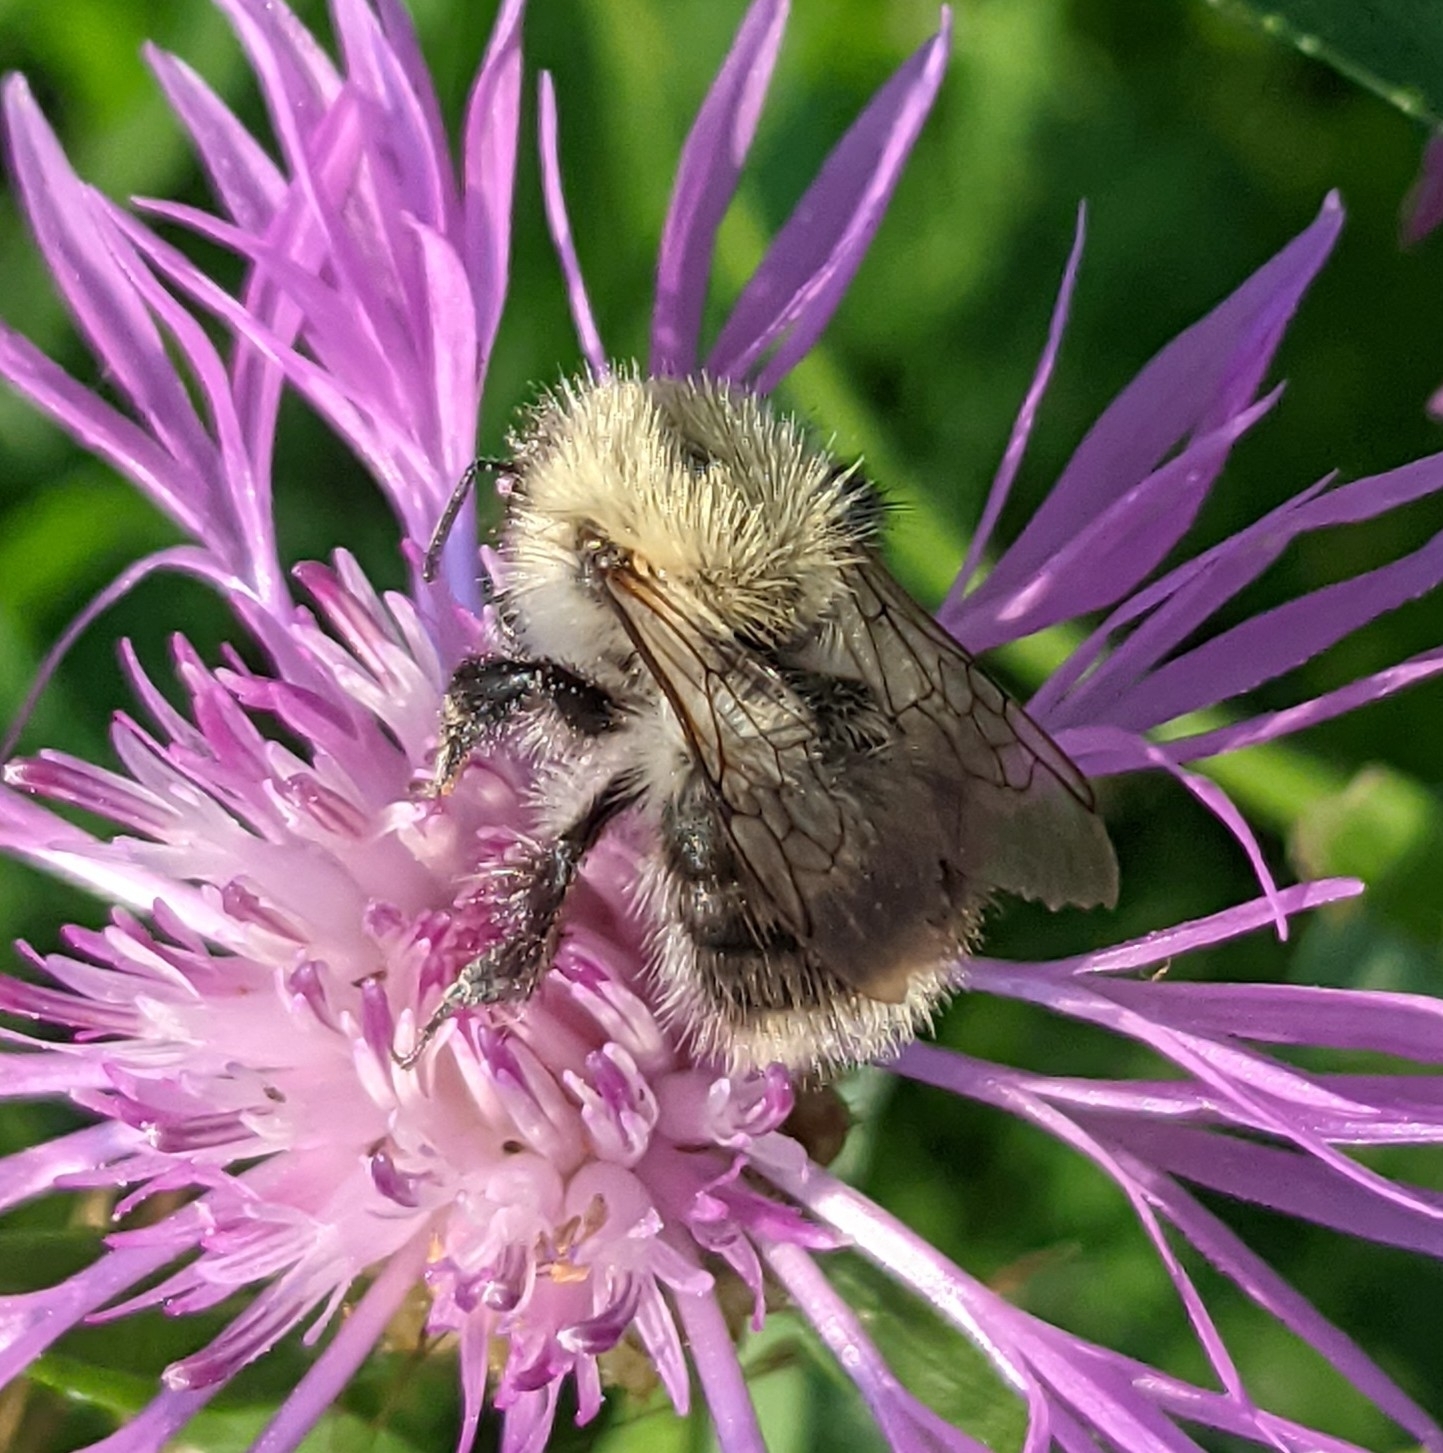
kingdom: Animalia
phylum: Arthropoda
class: Insecta
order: Hymenoptera
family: Apidae
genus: Bombus
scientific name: Bombus pascuorum
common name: Common carder bee
